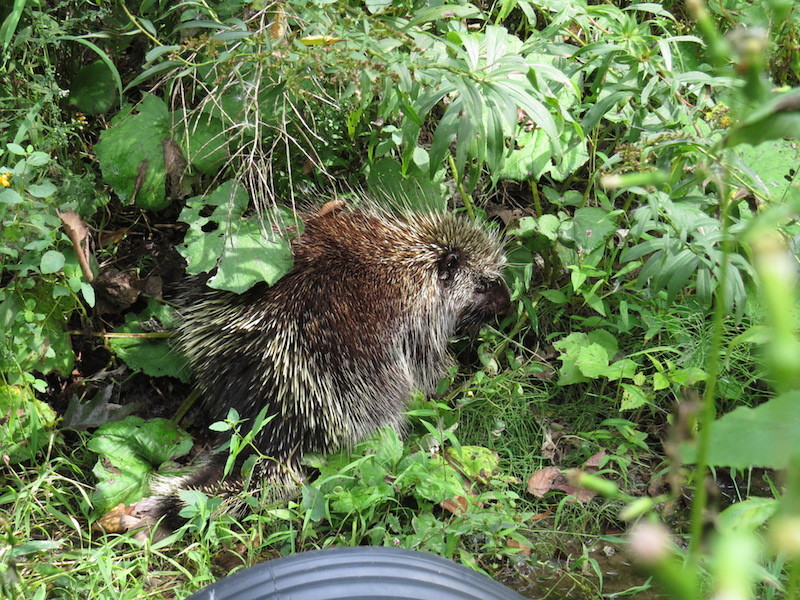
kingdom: Animalia
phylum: Chordata
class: Mammalia
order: Rodentia
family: Erethizontidae
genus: Erethizon
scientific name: Erethizon dorsatus
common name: North american porcupine
